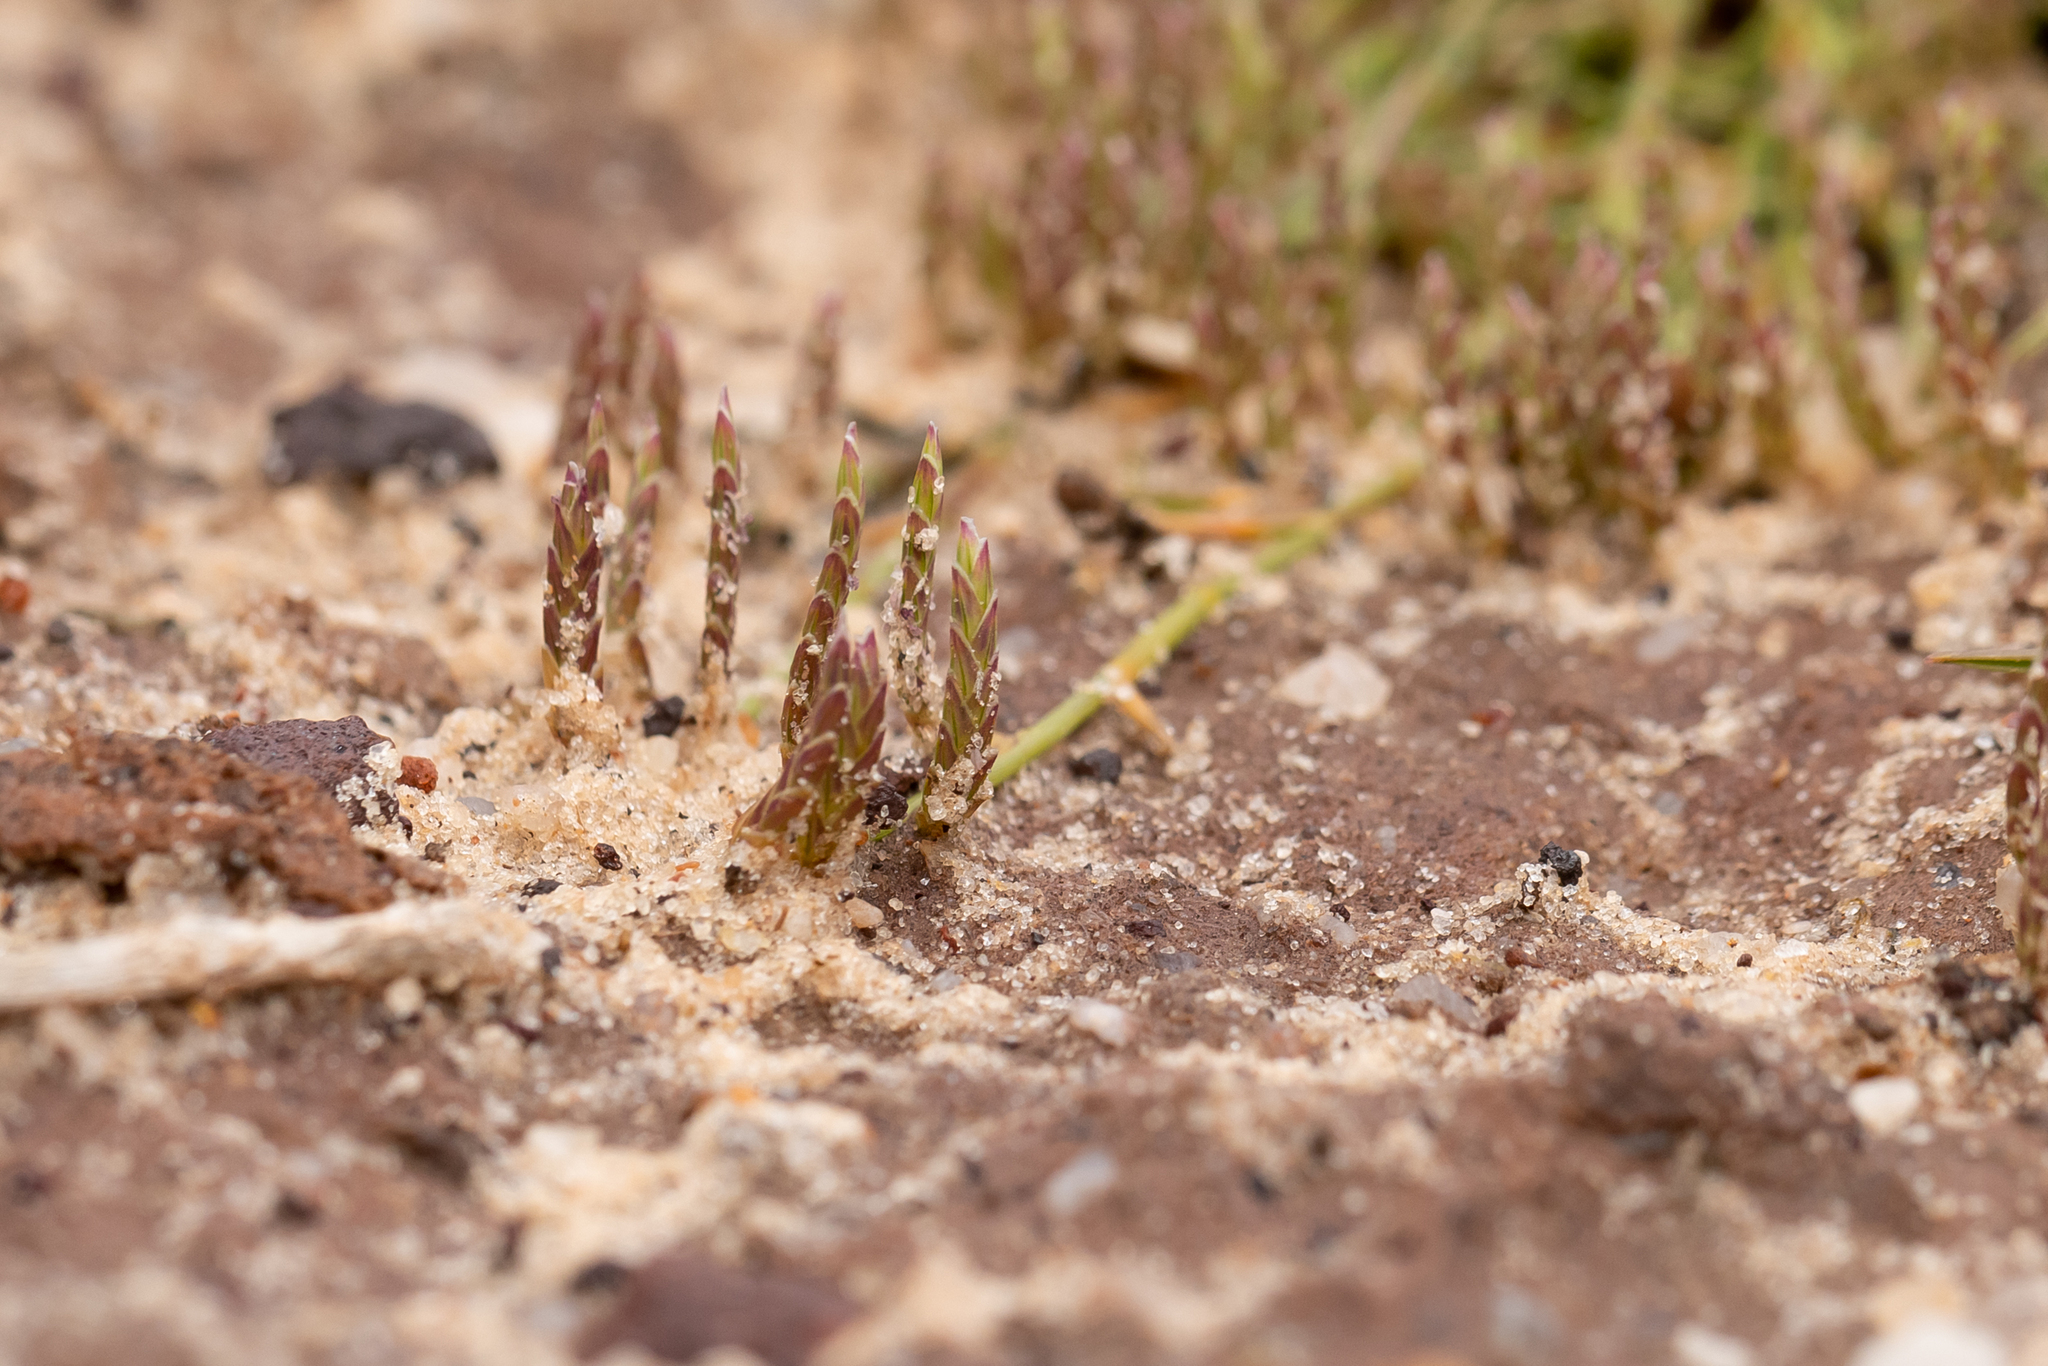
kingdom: Plantae
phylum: Tracheophyta
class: Liliopsida
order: Poales
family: Poaceae
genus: Eragrostis
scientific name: Eragrostis dielsii
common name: Lovegrass
